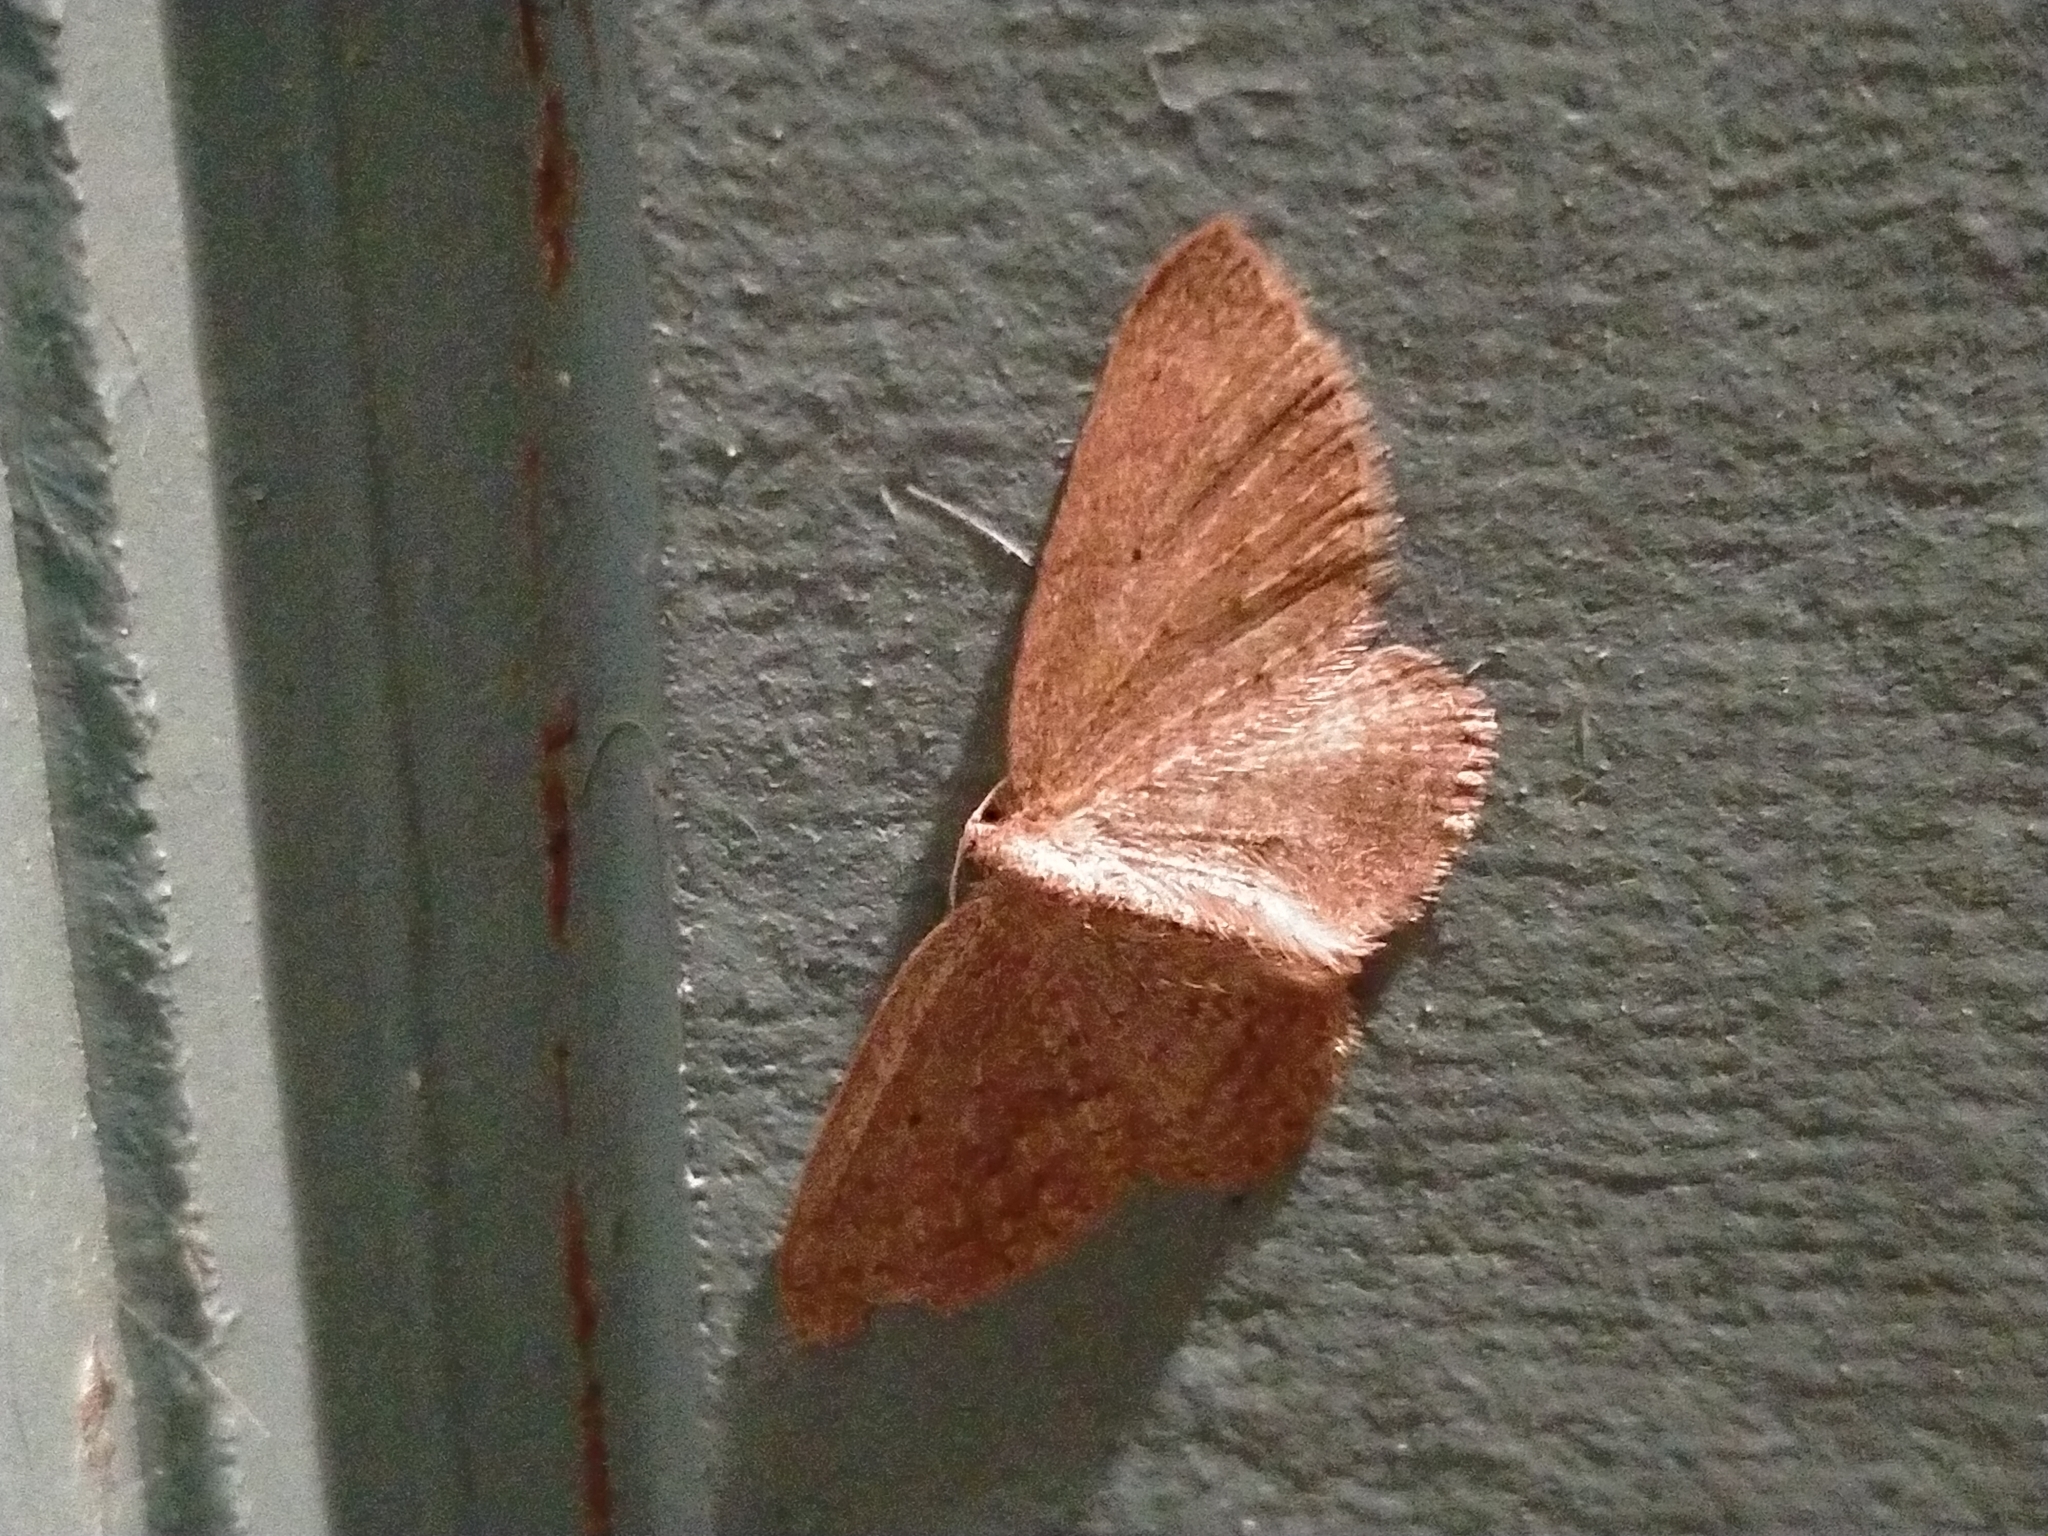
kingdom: Animalia
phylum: Arthropoda
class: Insecta
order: Lepidoptera
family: Geometridae
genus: Poecilasthena
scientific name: Poecilasthena schistaria
